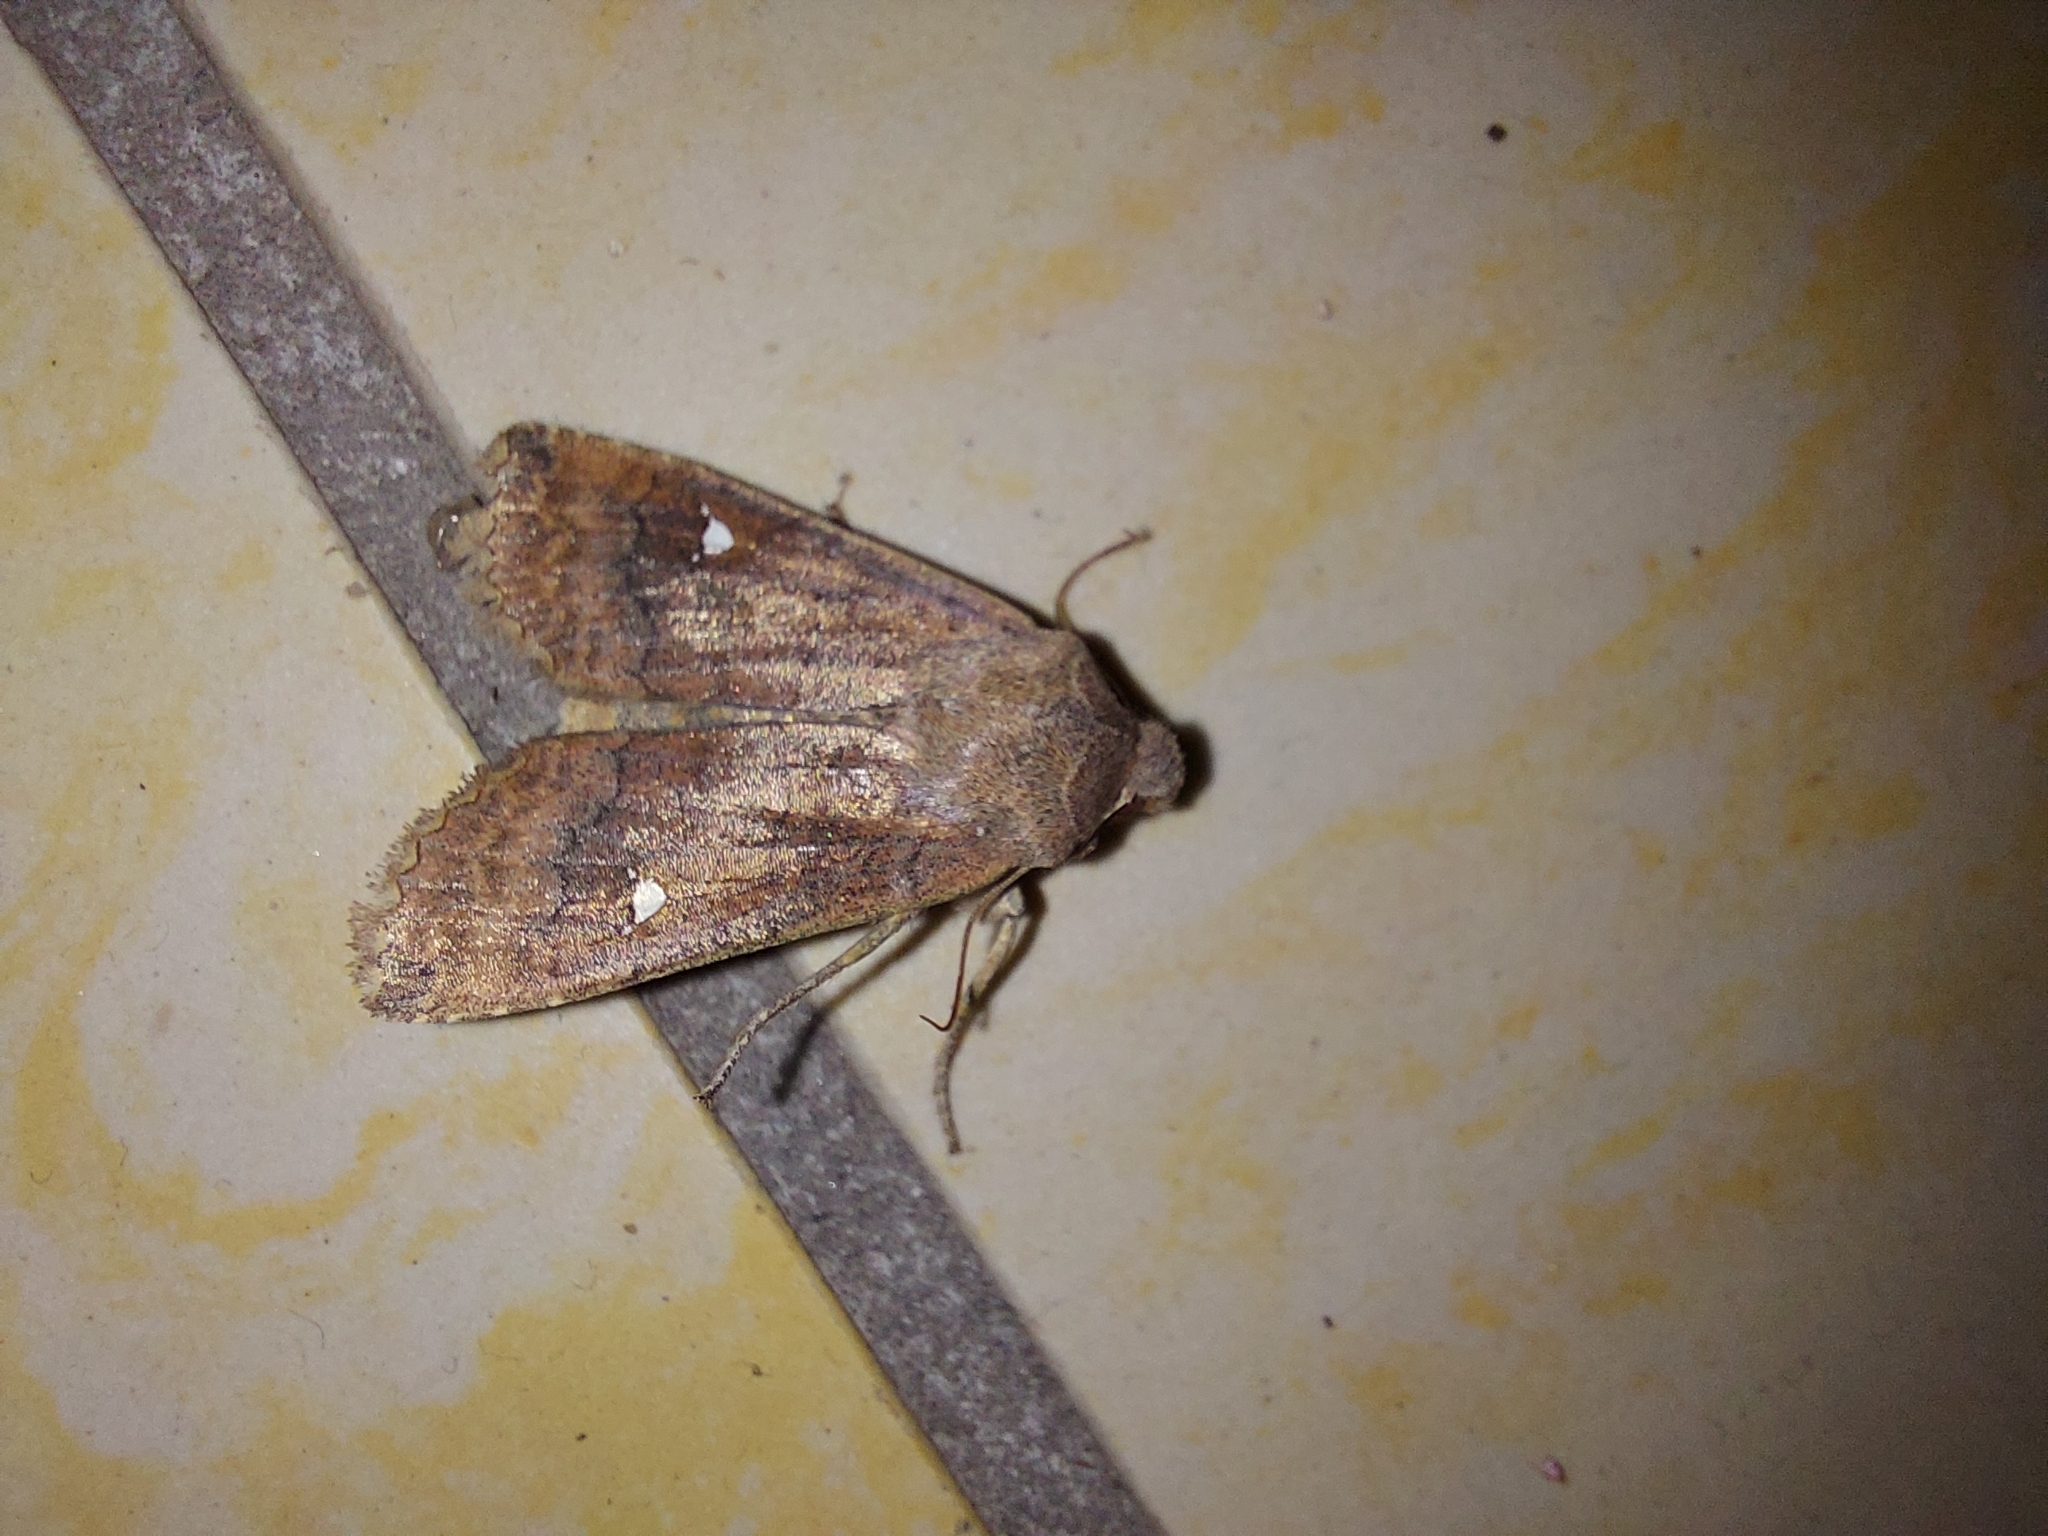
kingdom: Animalia
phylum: Arthropoda
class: Insecta
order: Lepidoptera
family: Noctuidae
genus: Eupsilia
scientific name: Eupsilia transversa
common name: Satellite
